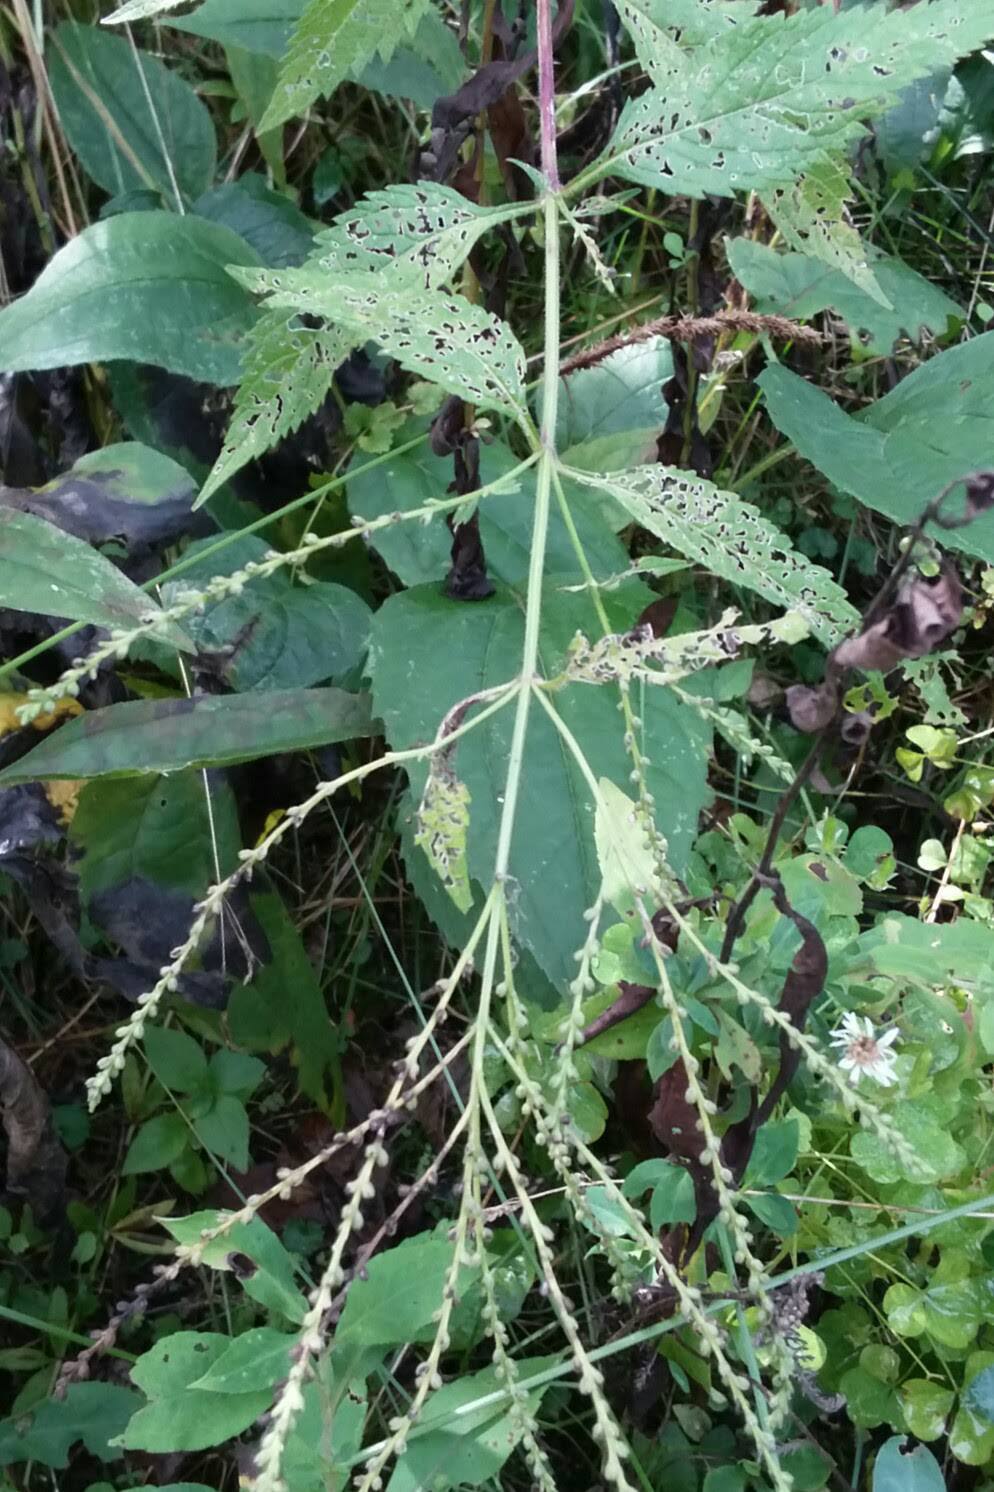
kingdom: Plantae
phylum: Tracheophyta
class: Magnoliopsida
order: Lamiales
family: Verbenaceae
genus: Verbena
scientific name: Verbena urticifolia
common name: Nettle-leaved vervain
